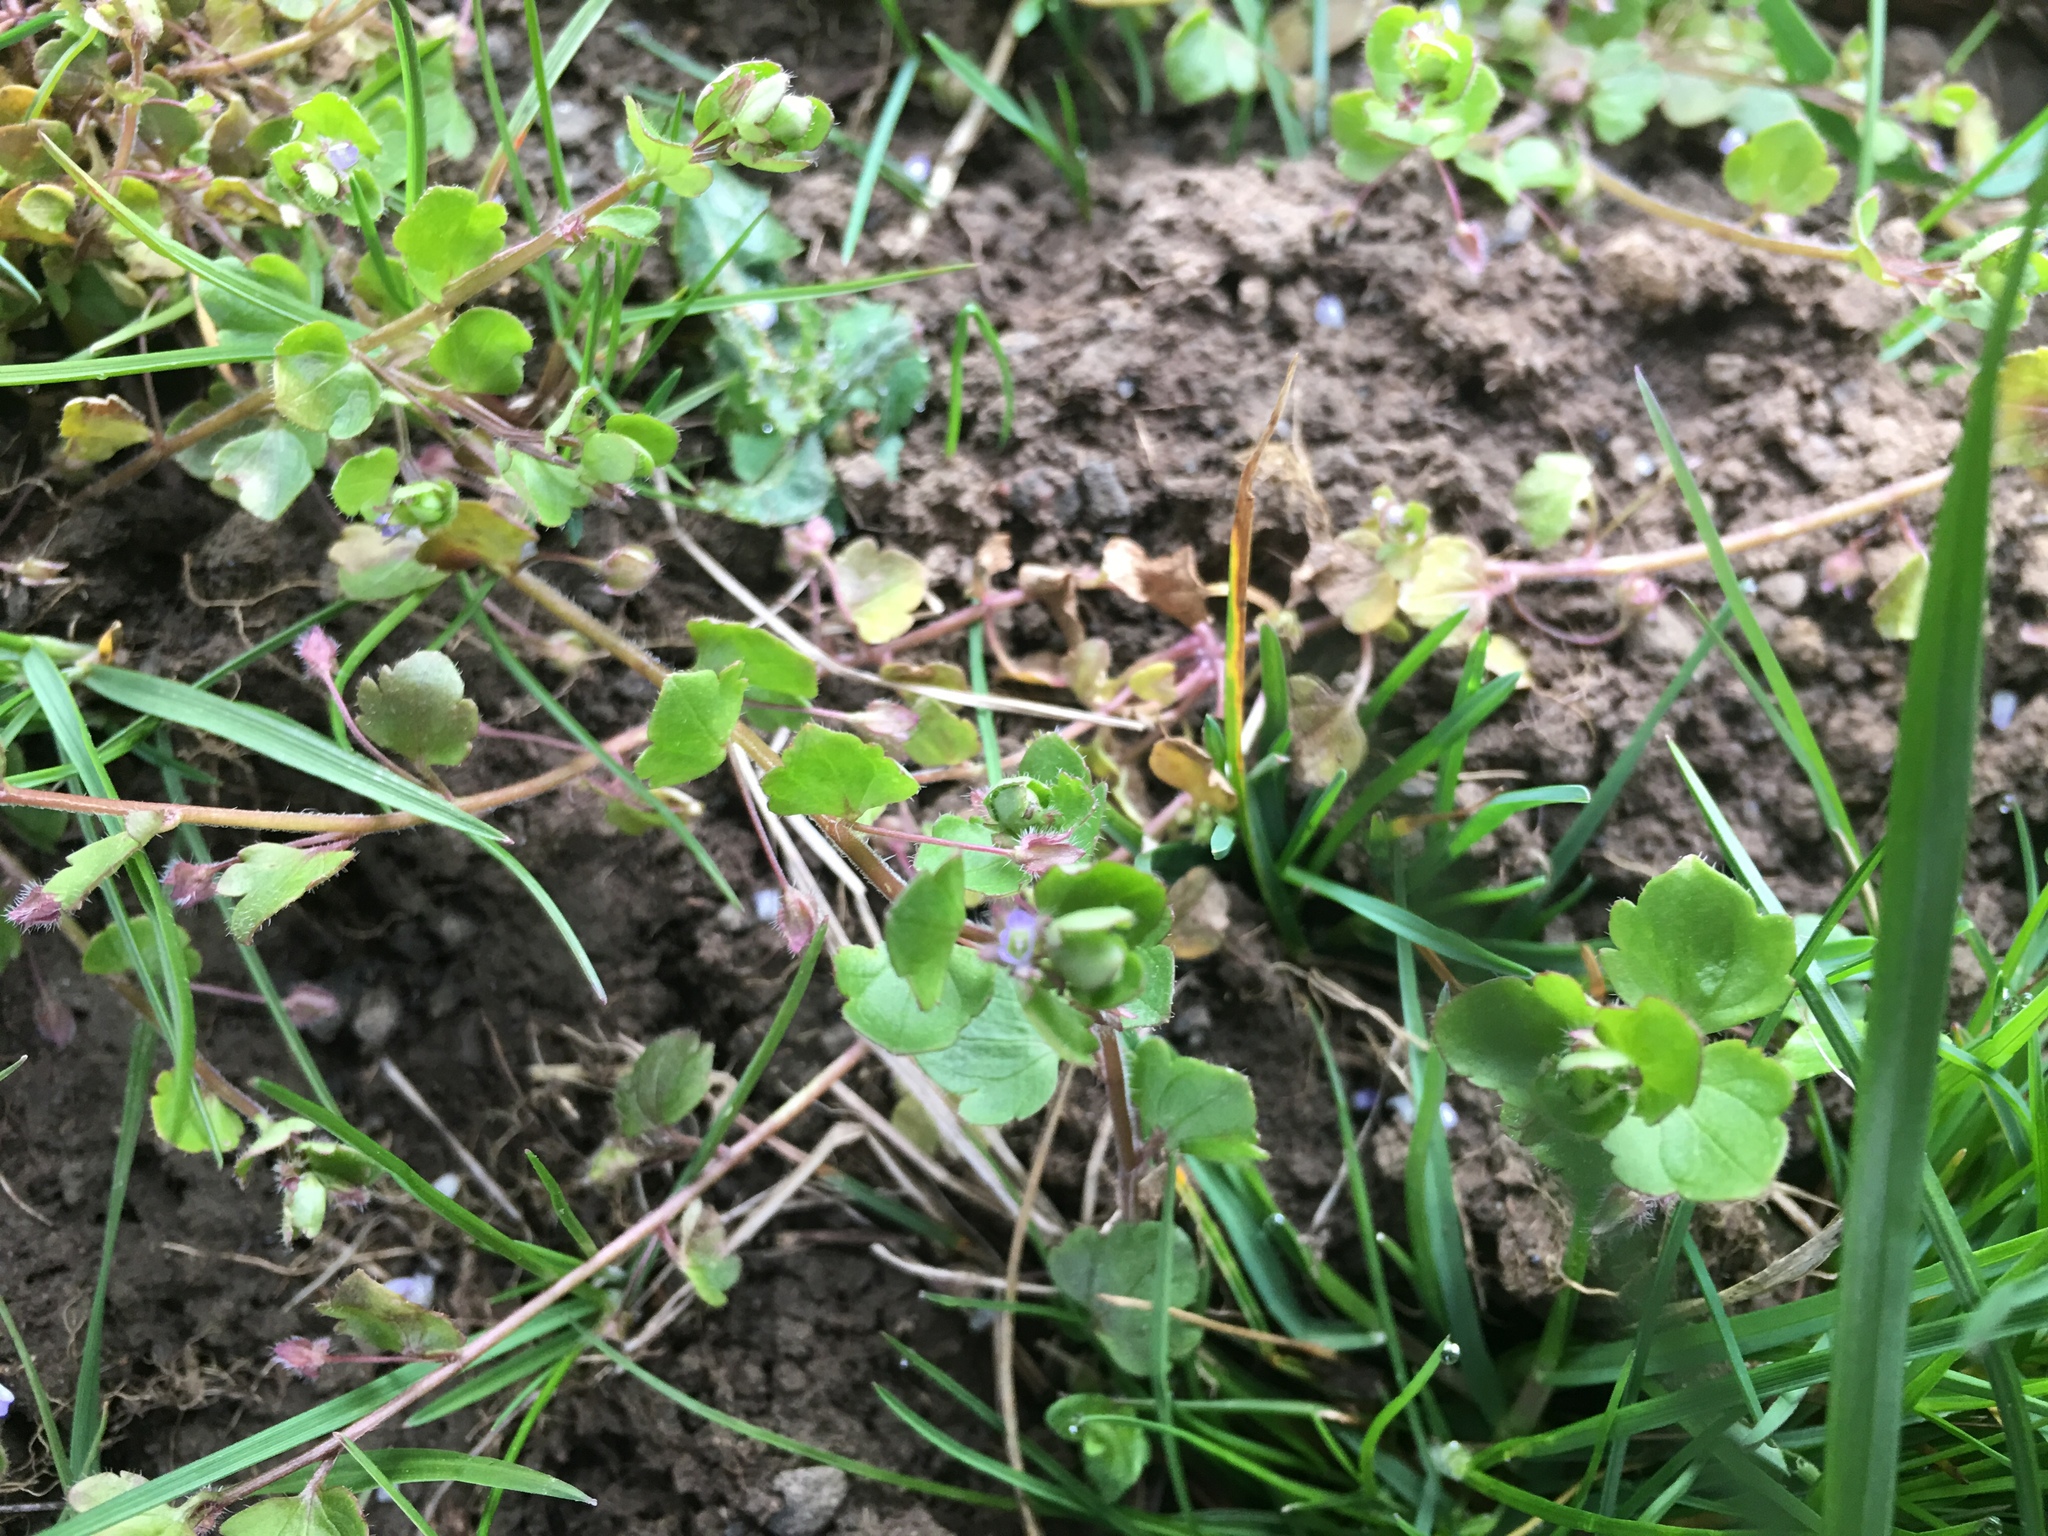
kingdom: Plantae
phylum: Tracheophyta
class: Magnoliopsida
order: Lamiales
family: Plantaginaceae
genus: Veronica
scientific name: Veronica hederifolia
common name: Ivy-leaved speedwell
